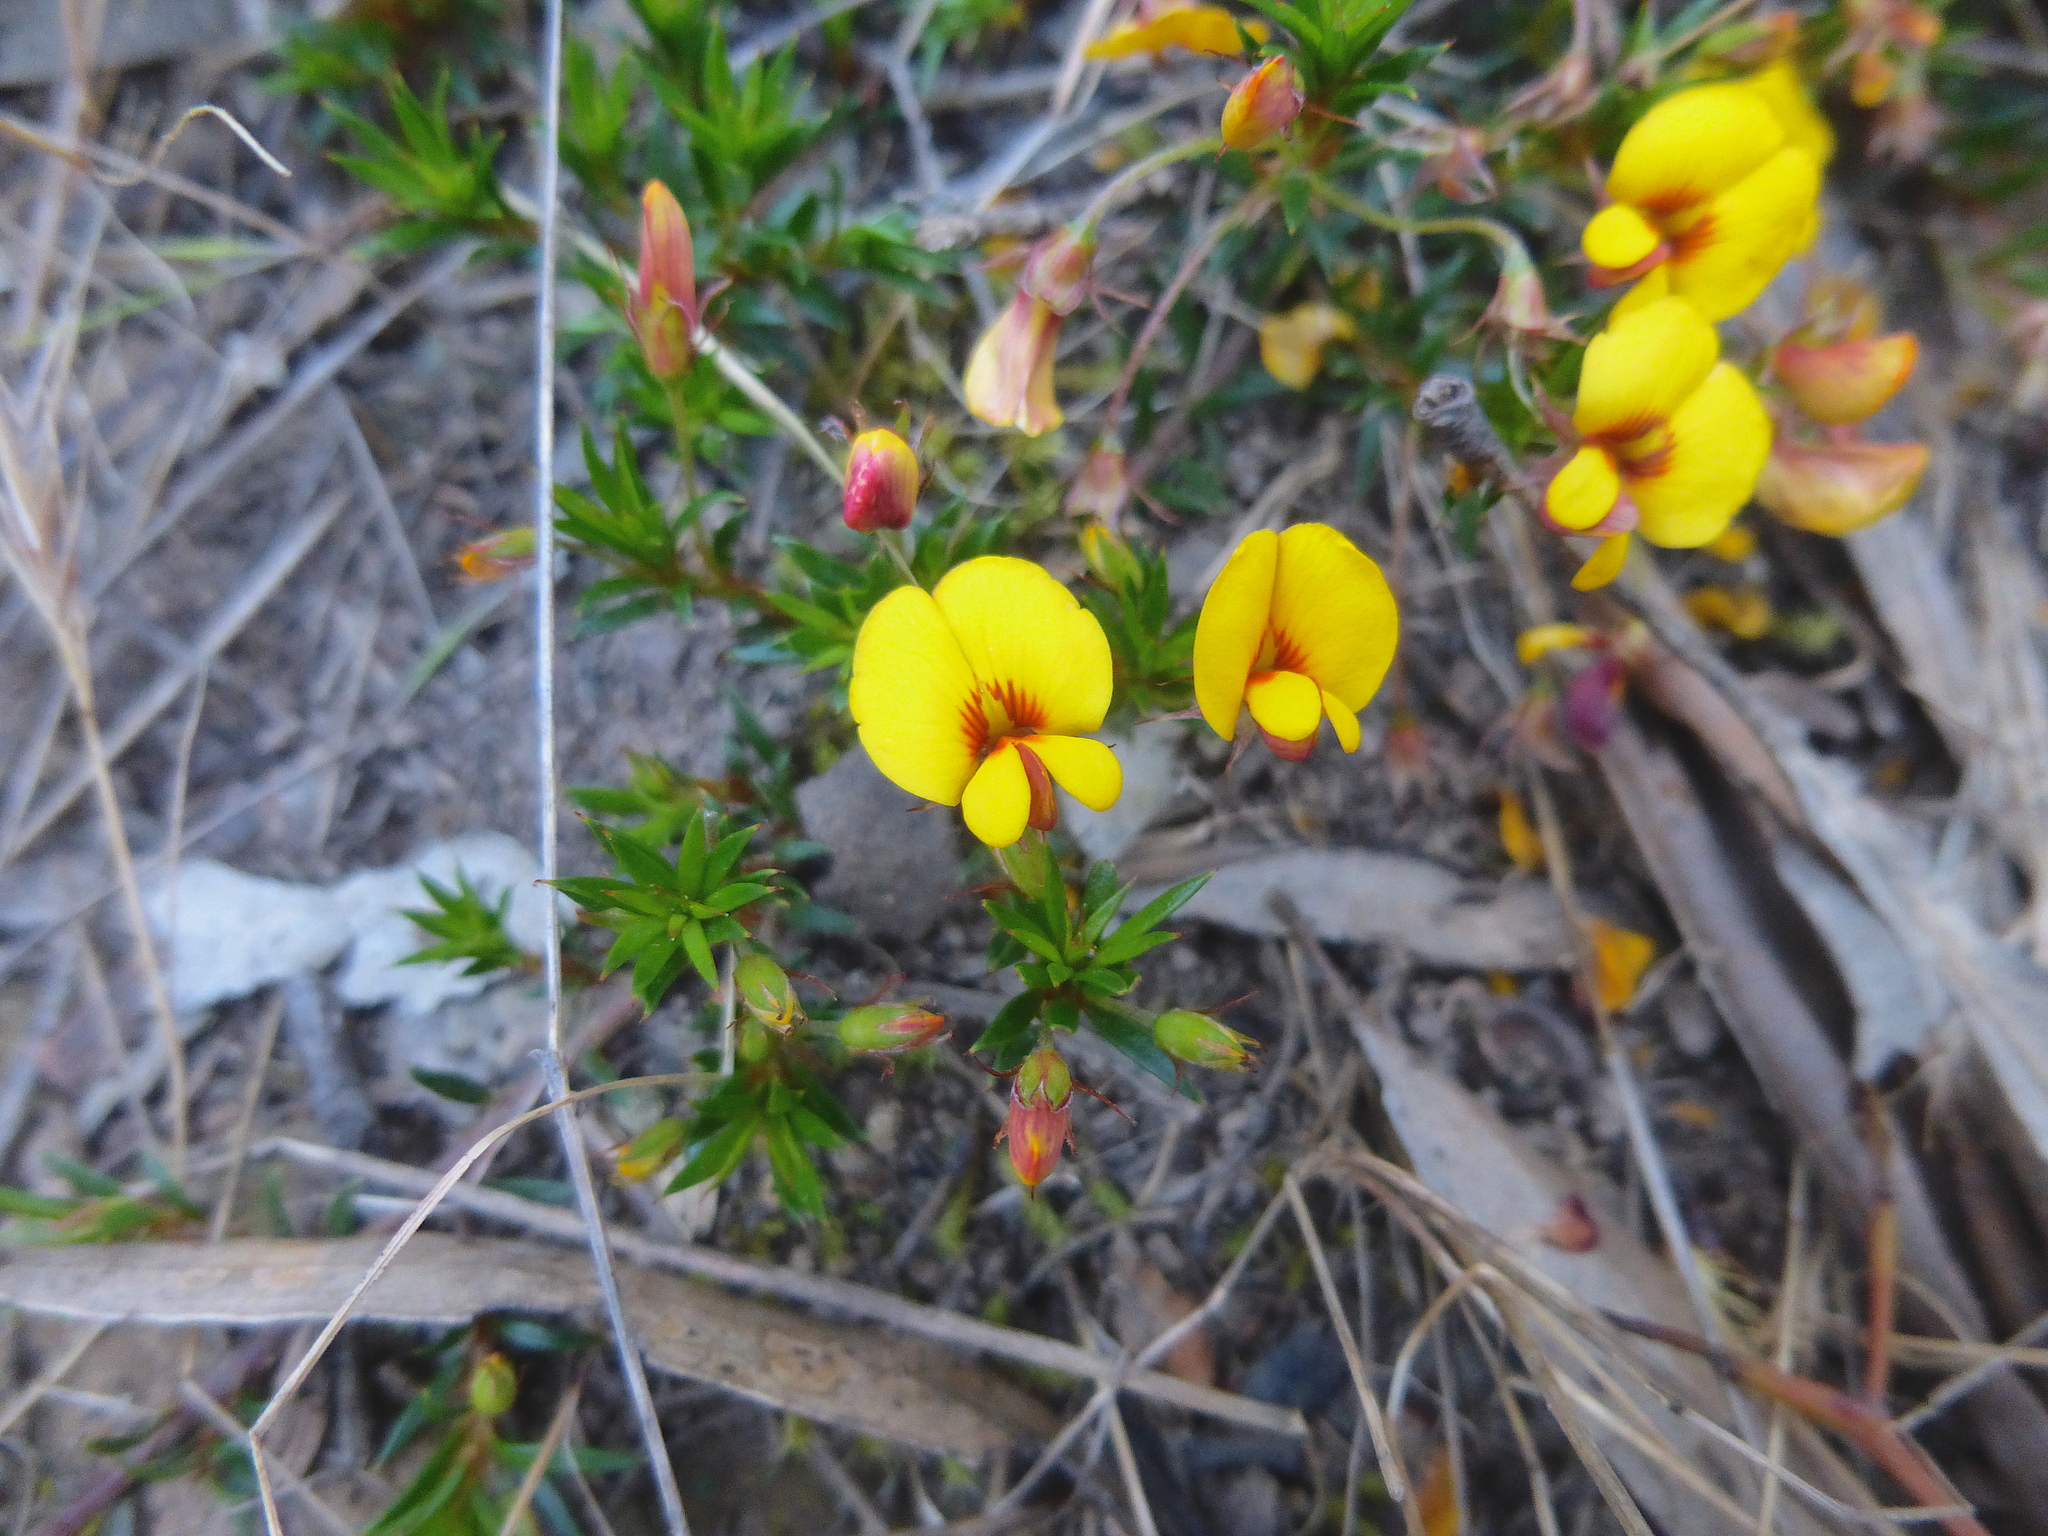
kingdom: Plantae
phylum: Tracheophyta
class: Magnoliopsida
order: Fabales
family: Fabaceae
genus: Pultenaea
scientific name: Pultenaea pedunculata
